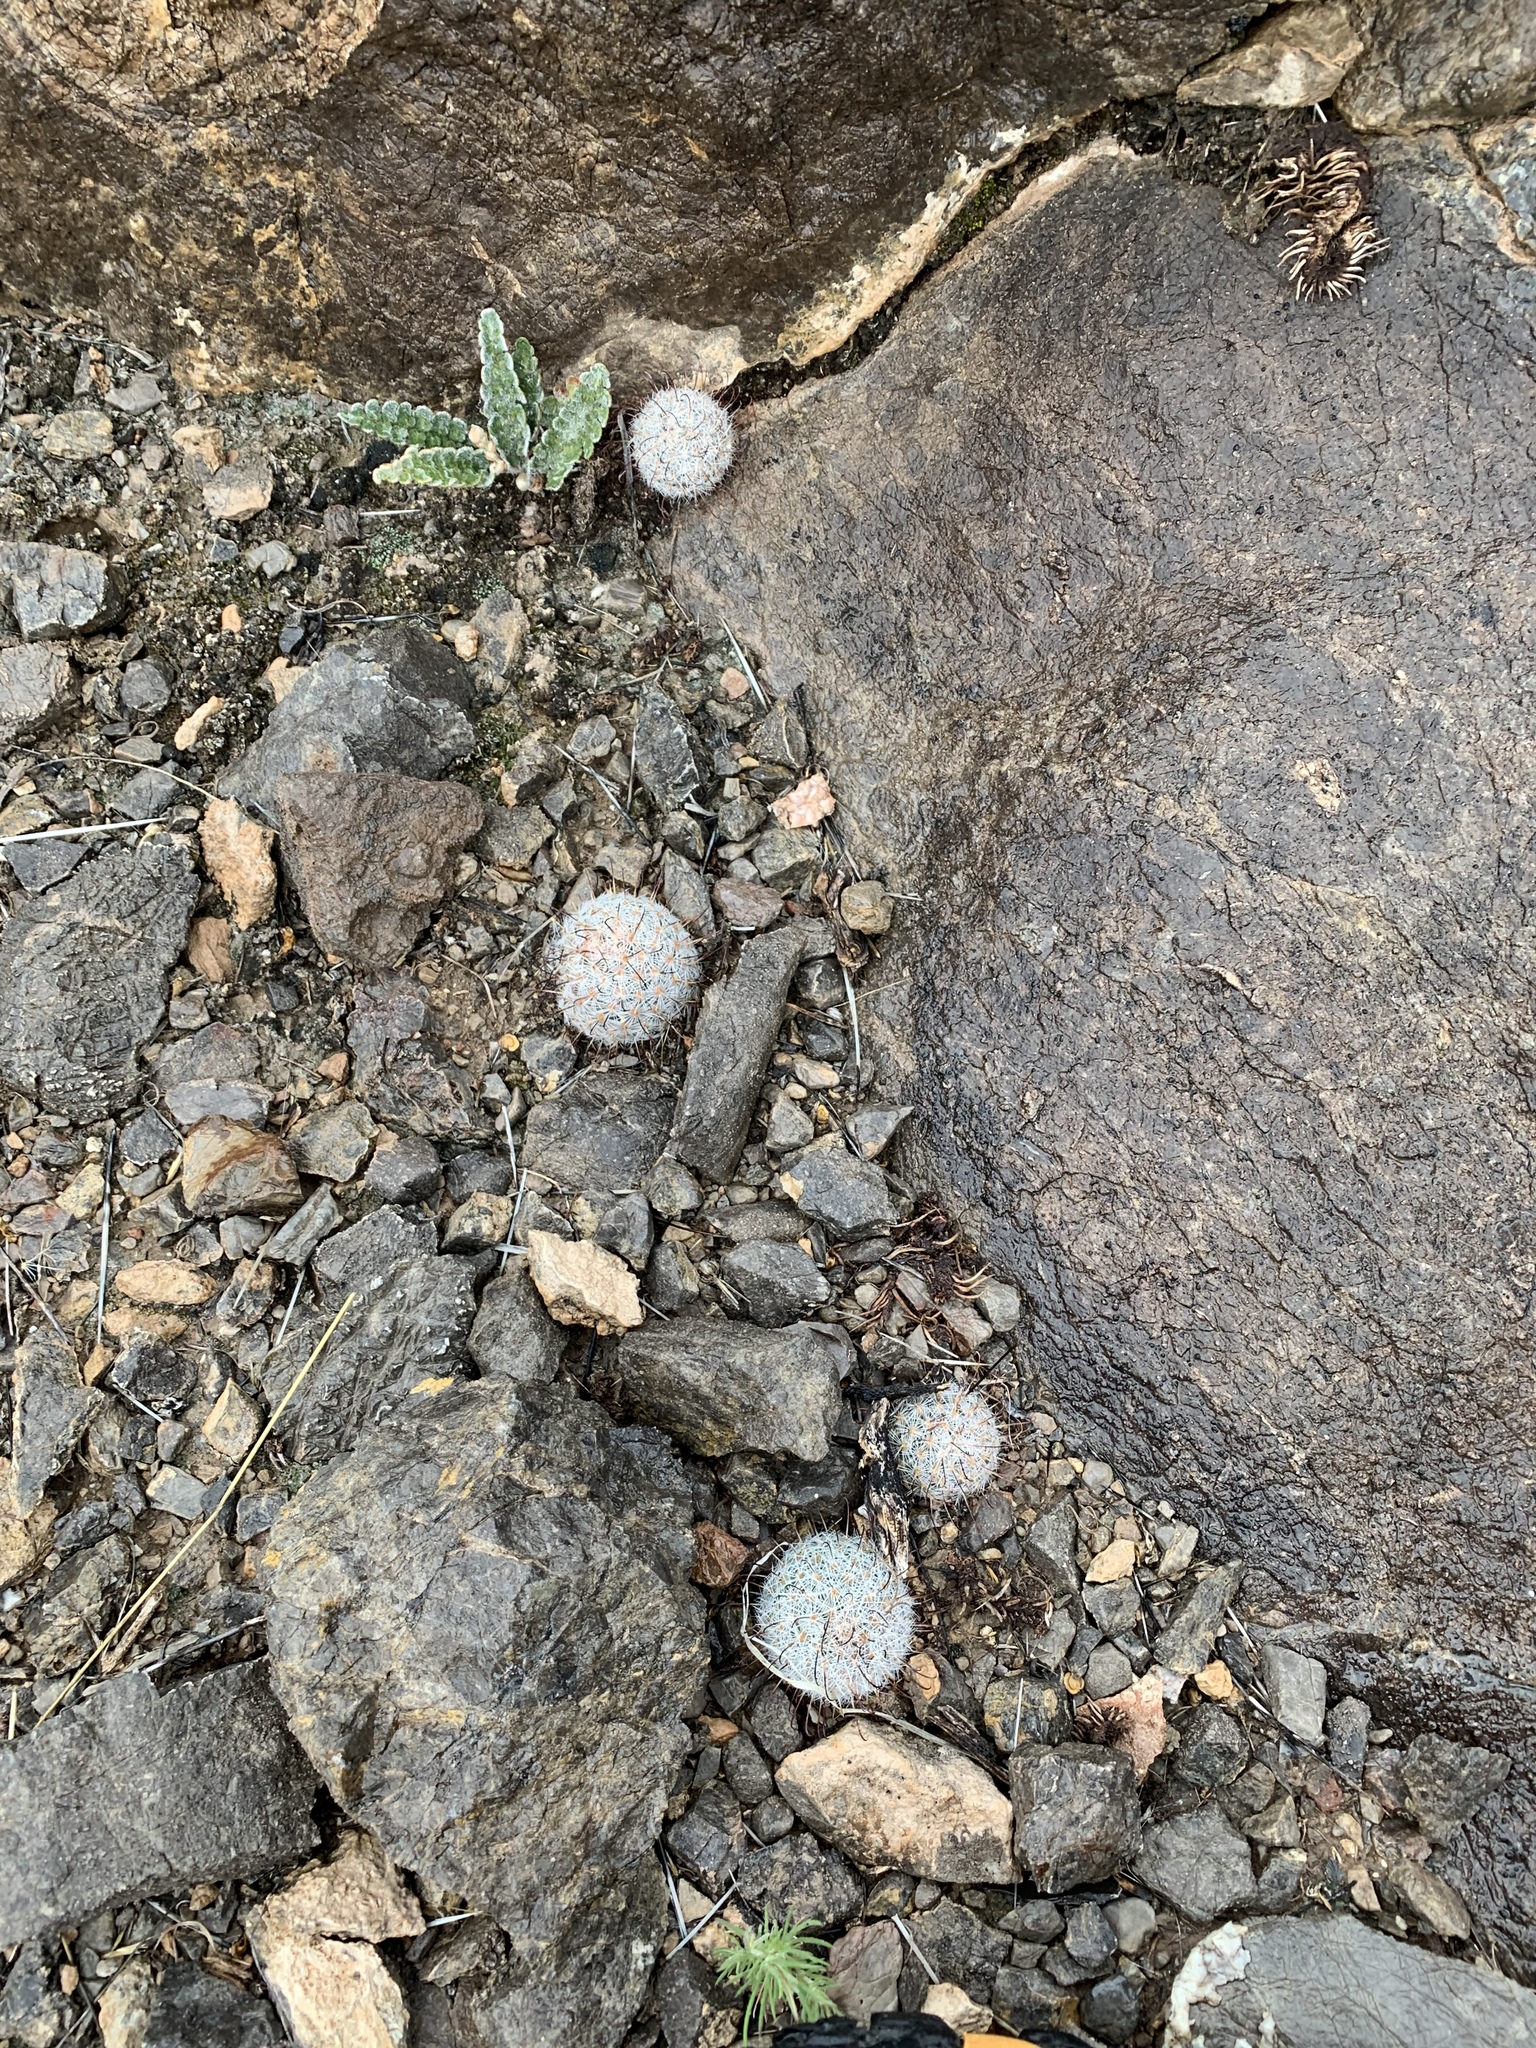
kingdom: Plantae
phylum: Tracheophyta
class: Magnoliopsida
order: Caryophyllales
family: Cactaceae
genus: Cochemiea
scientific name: Cochemiea grahamii
